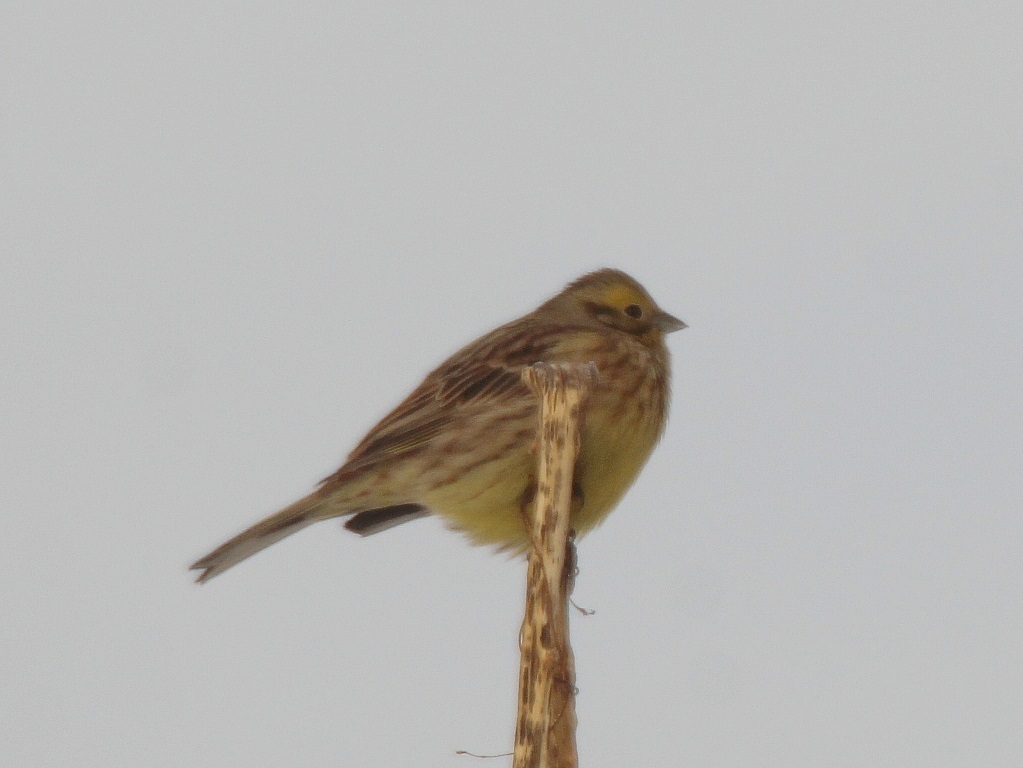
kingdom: Animalia
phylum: Chordata
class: Aves
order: Passeriformes
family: Emberizidae
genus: Emberiza
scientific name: Emberiza citrinella
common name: Yellowhammer
